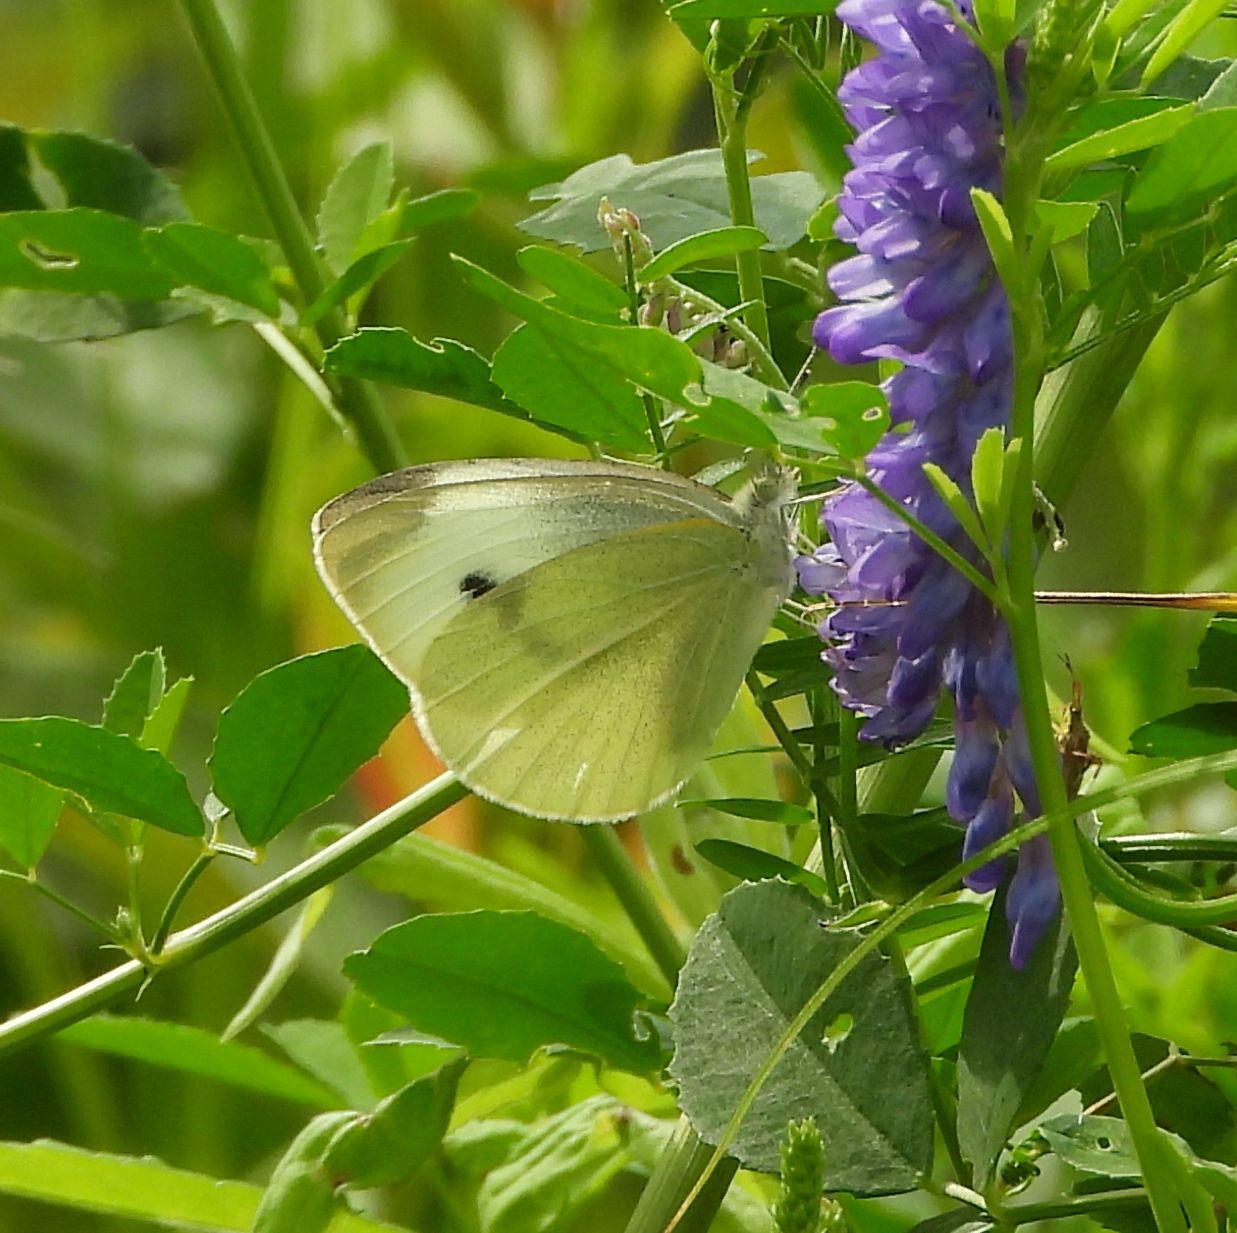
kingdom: Animalia
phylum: Arthropoda
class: Insecta
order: Lepidoptera
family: Pieridae
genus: Pieris
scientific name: Pieris rapae
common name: Small white
